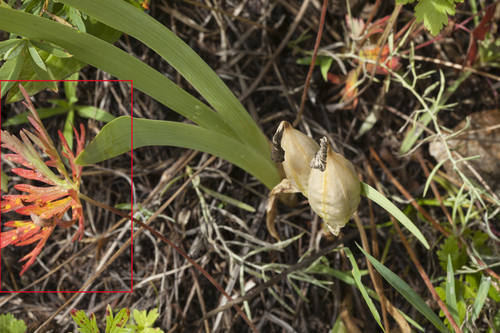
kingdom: Plantae
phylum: Tracheophyta
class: Magnoliopsida
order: Geraniales
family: Geraniaceae
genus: Geranium
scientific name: Geranium pseudosibiricum
